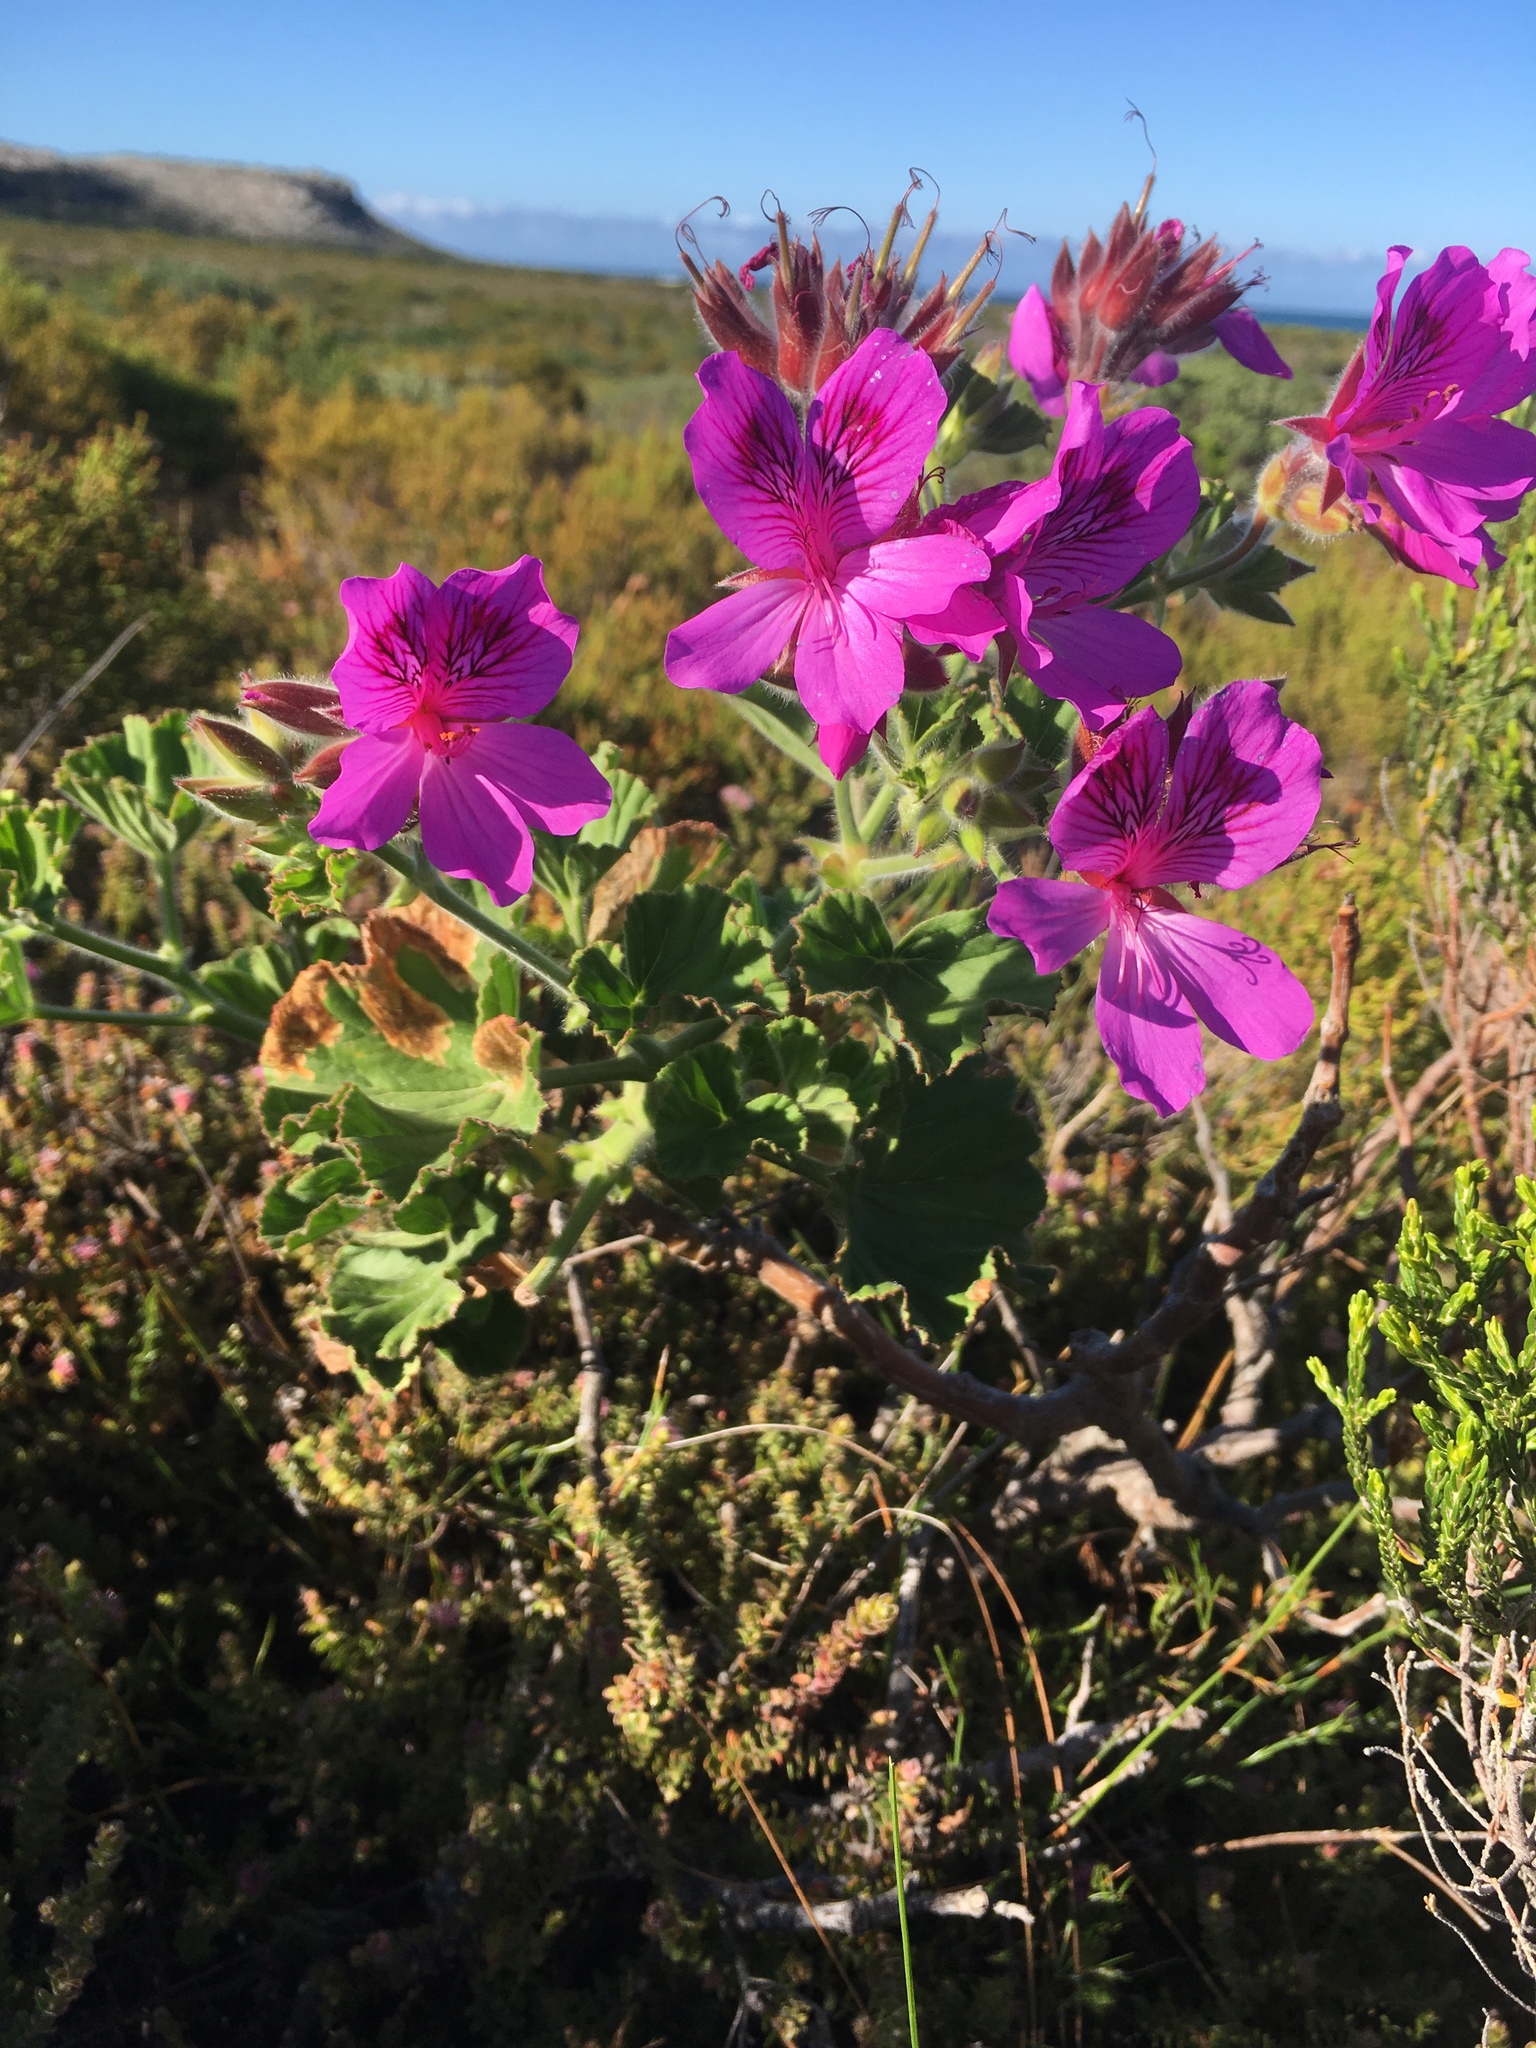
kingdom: Plantae
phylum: Tracheophyta
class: Magnoliopsida
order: Geraniales
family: Geraniaceae
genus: Pelargonium
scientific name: Pelargonium cucullatum
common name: Tree pelargonium
